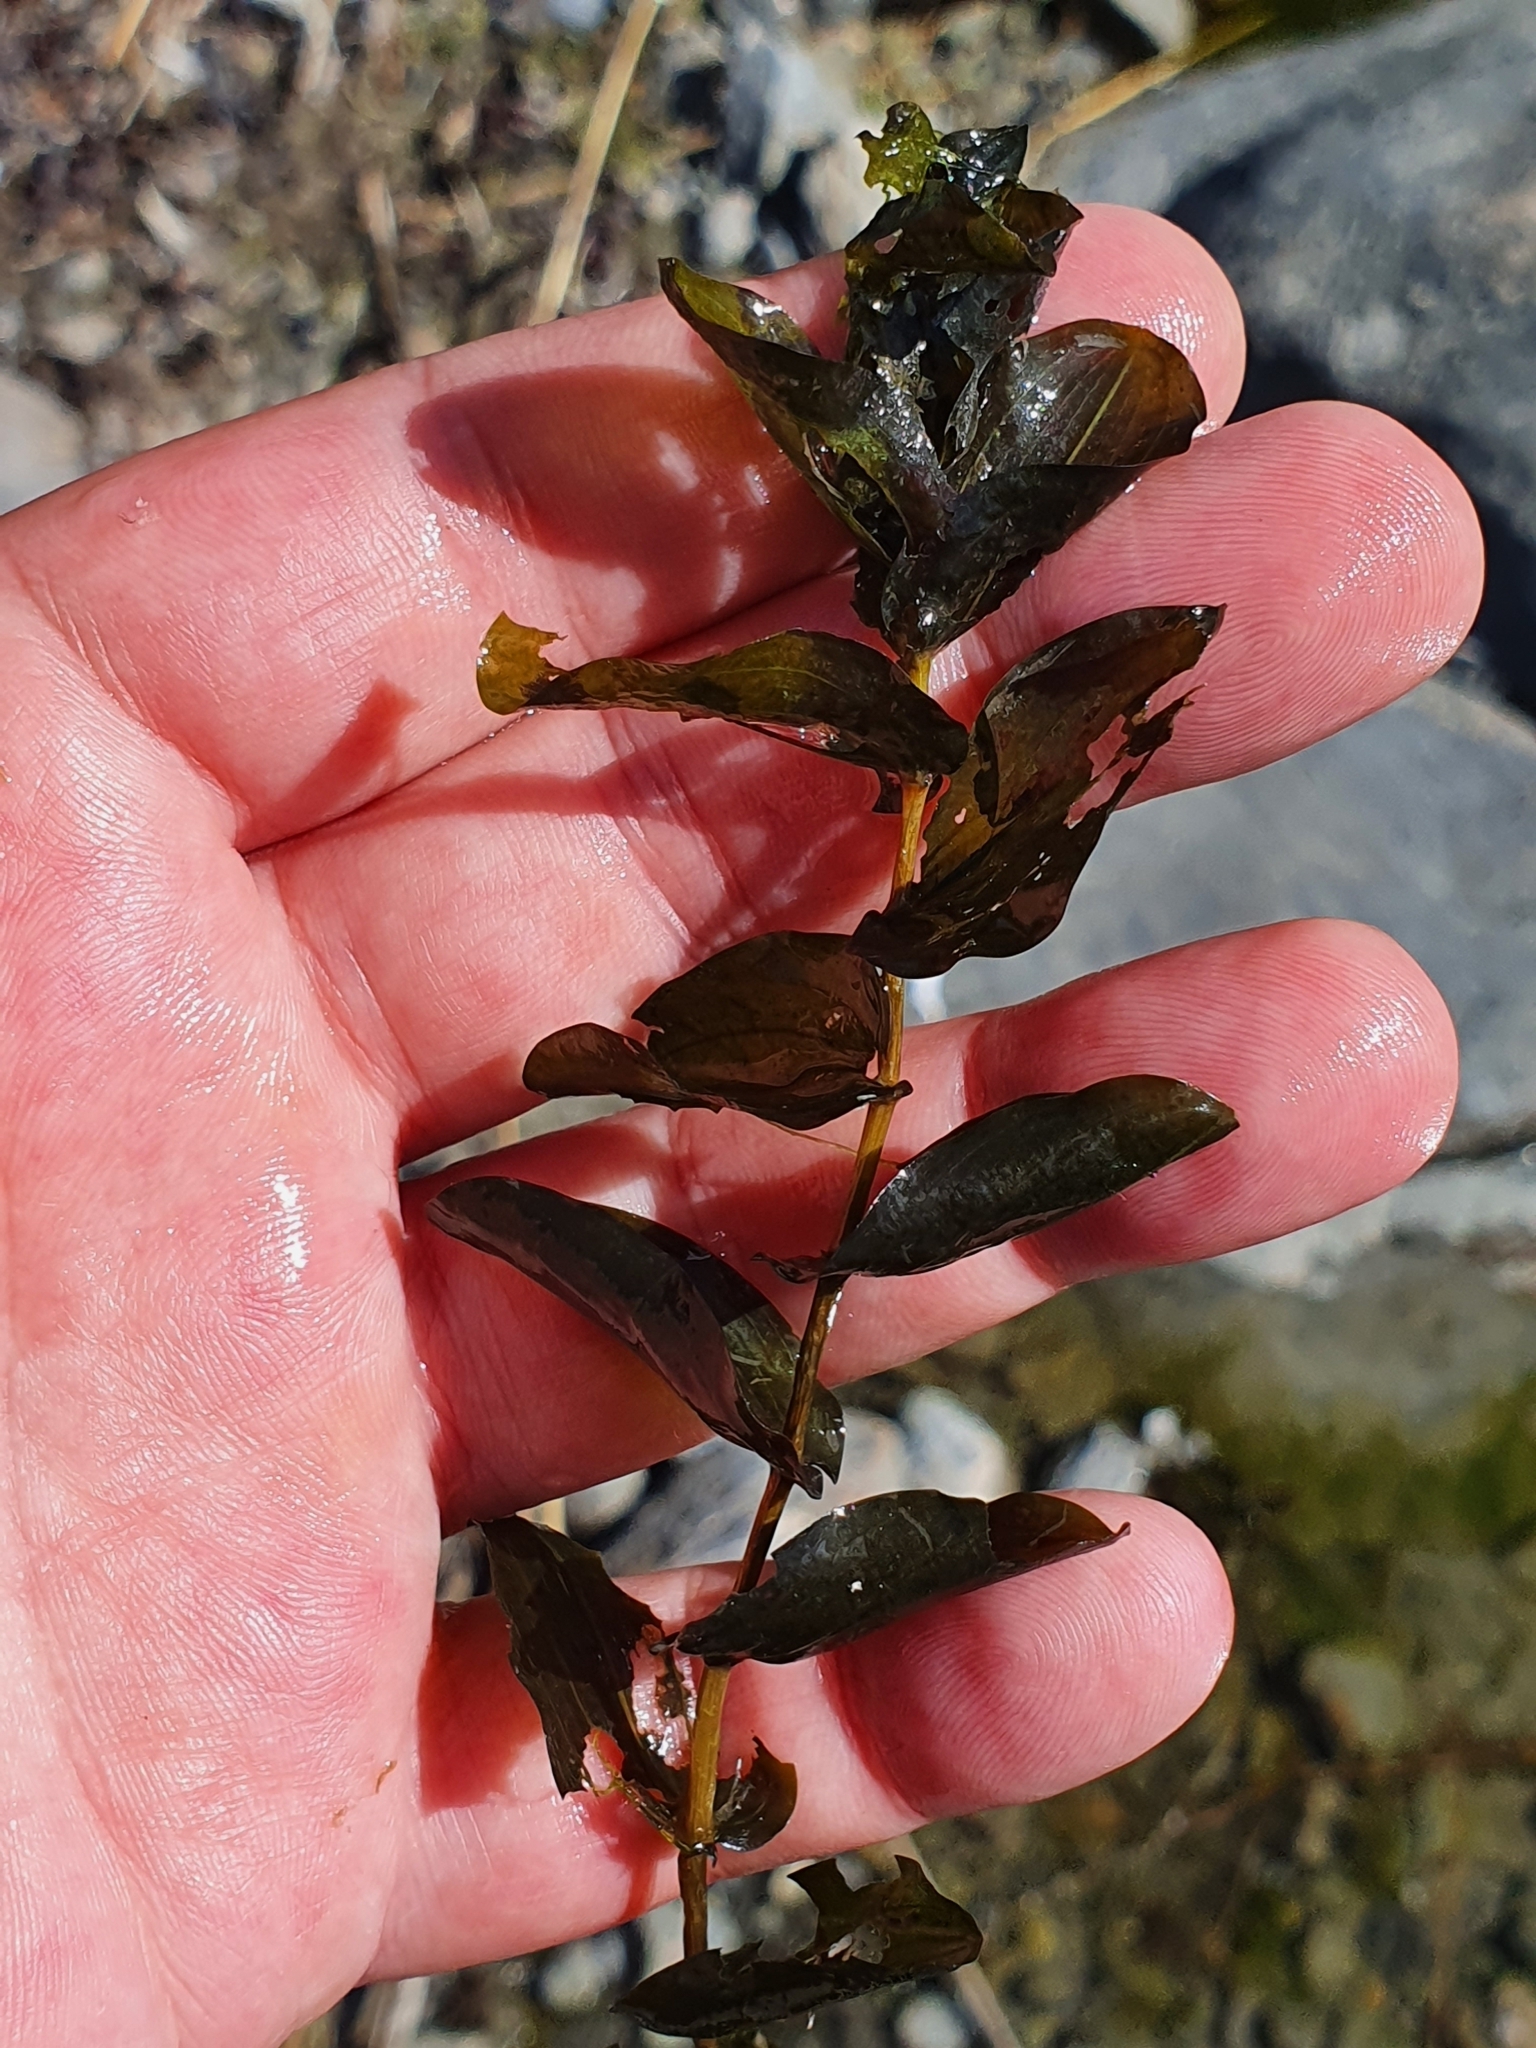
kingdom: Plantae
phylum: Tracheophyta
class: Liliopsida
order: Alismatales
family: Potamogetonaceae
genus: Potamogeton
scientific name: Potamogeton perfoliatus
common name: Perfoliate pondweed
